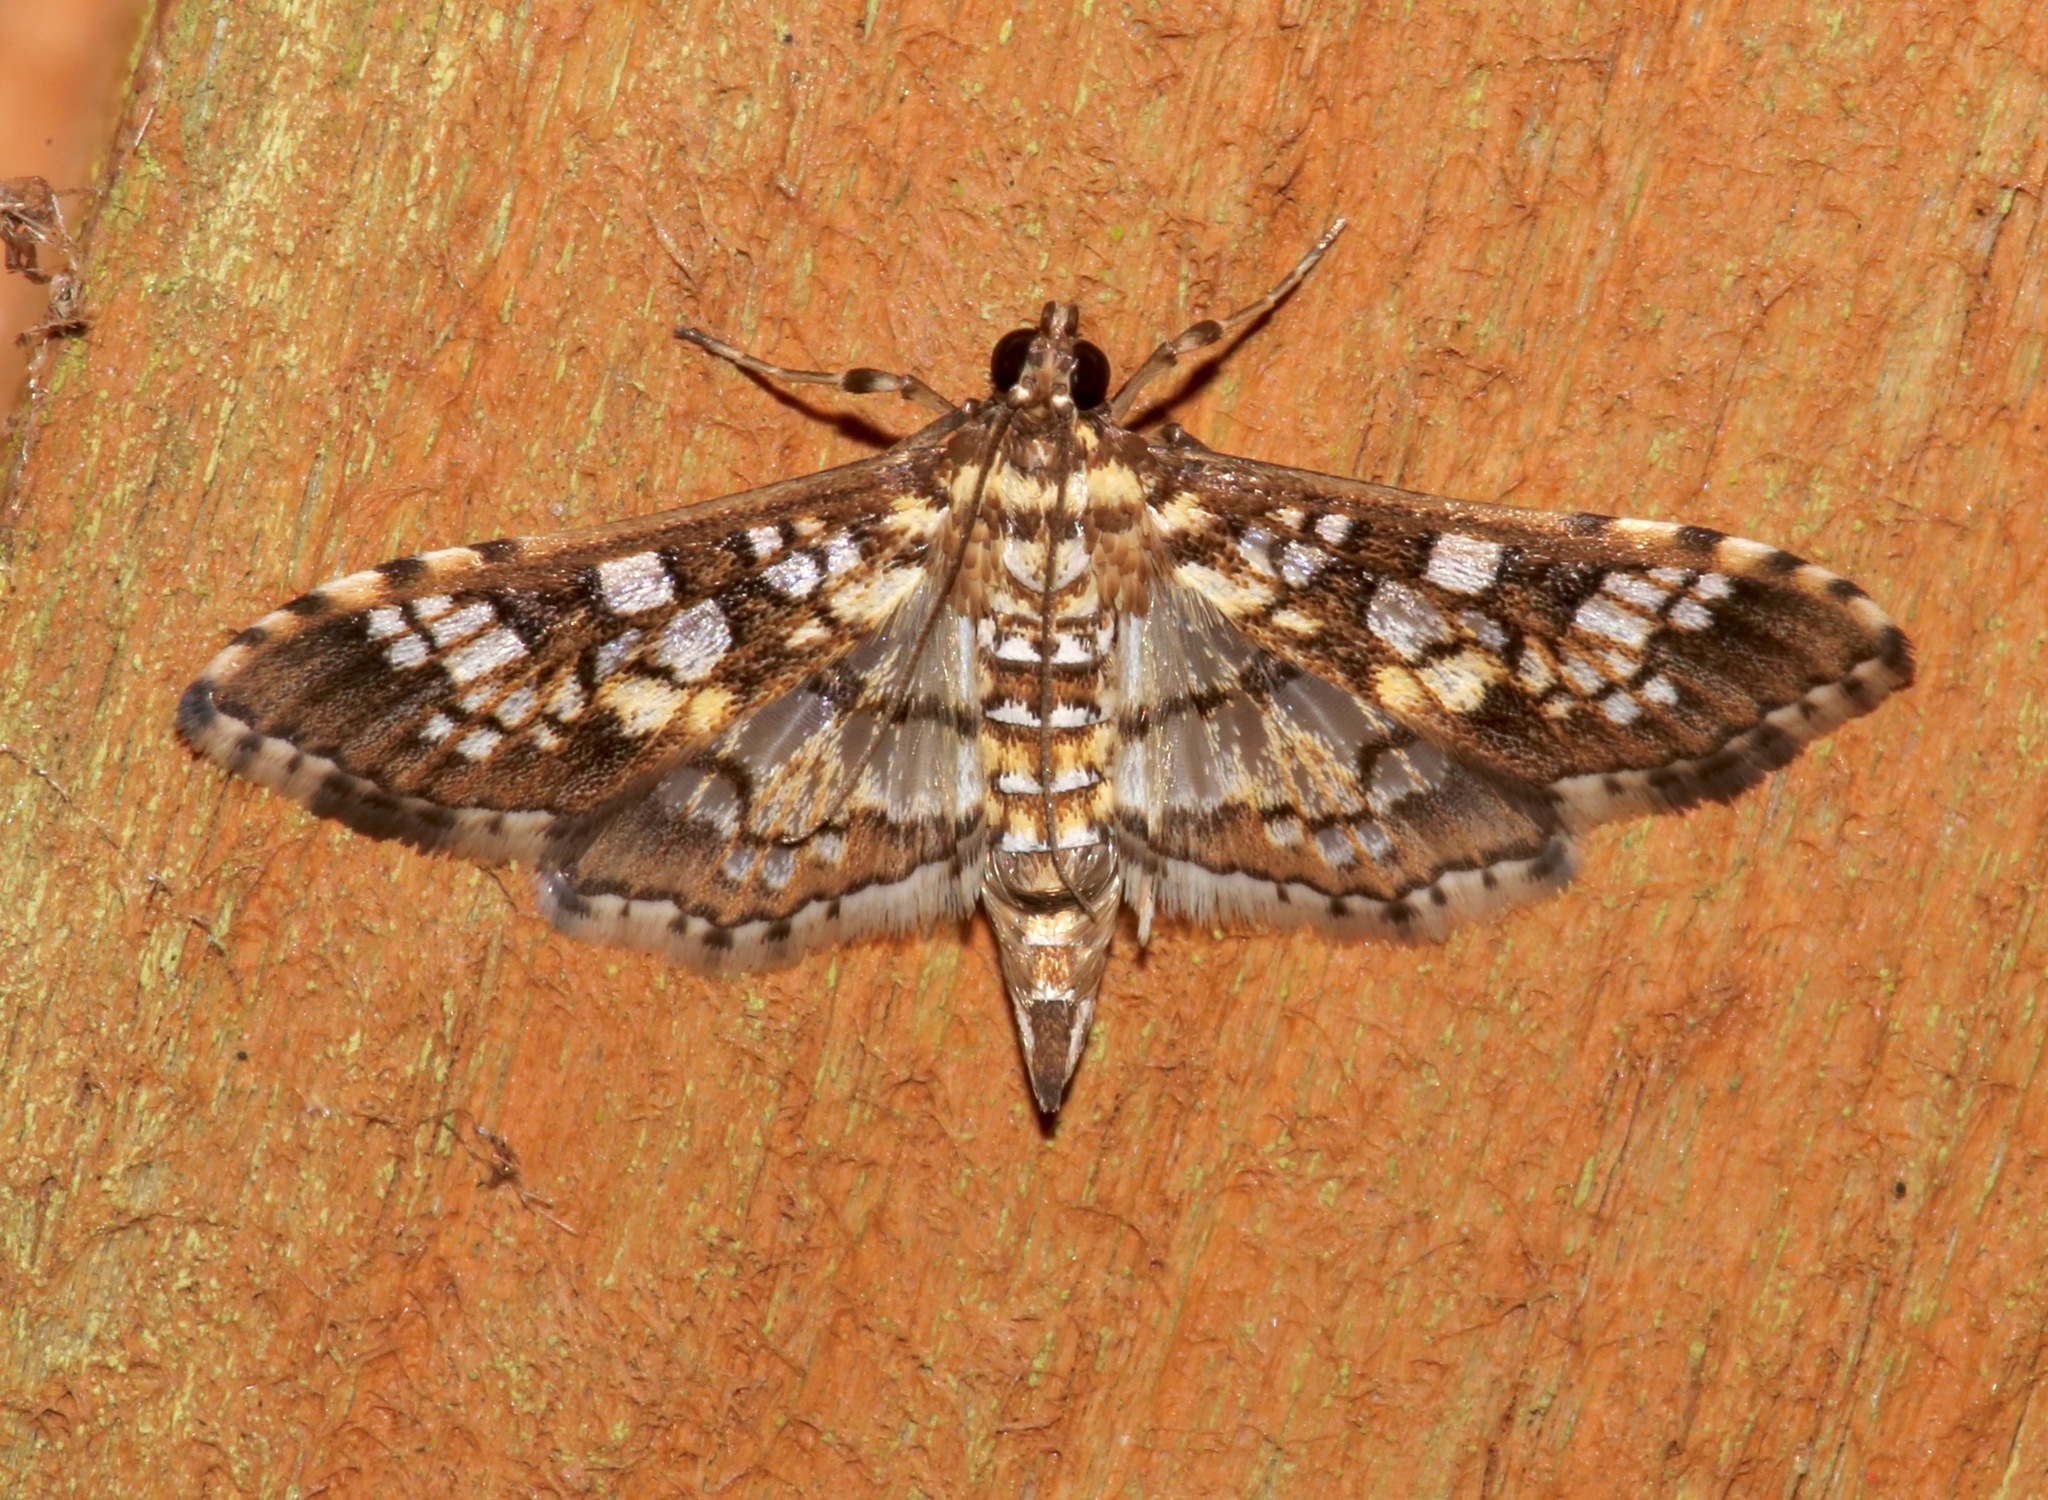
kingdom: Animalia
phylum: Arthropoda
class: Insecta
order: Lepidoptera
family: Crambidae
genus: Samea
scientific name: Samea ecclesialis
